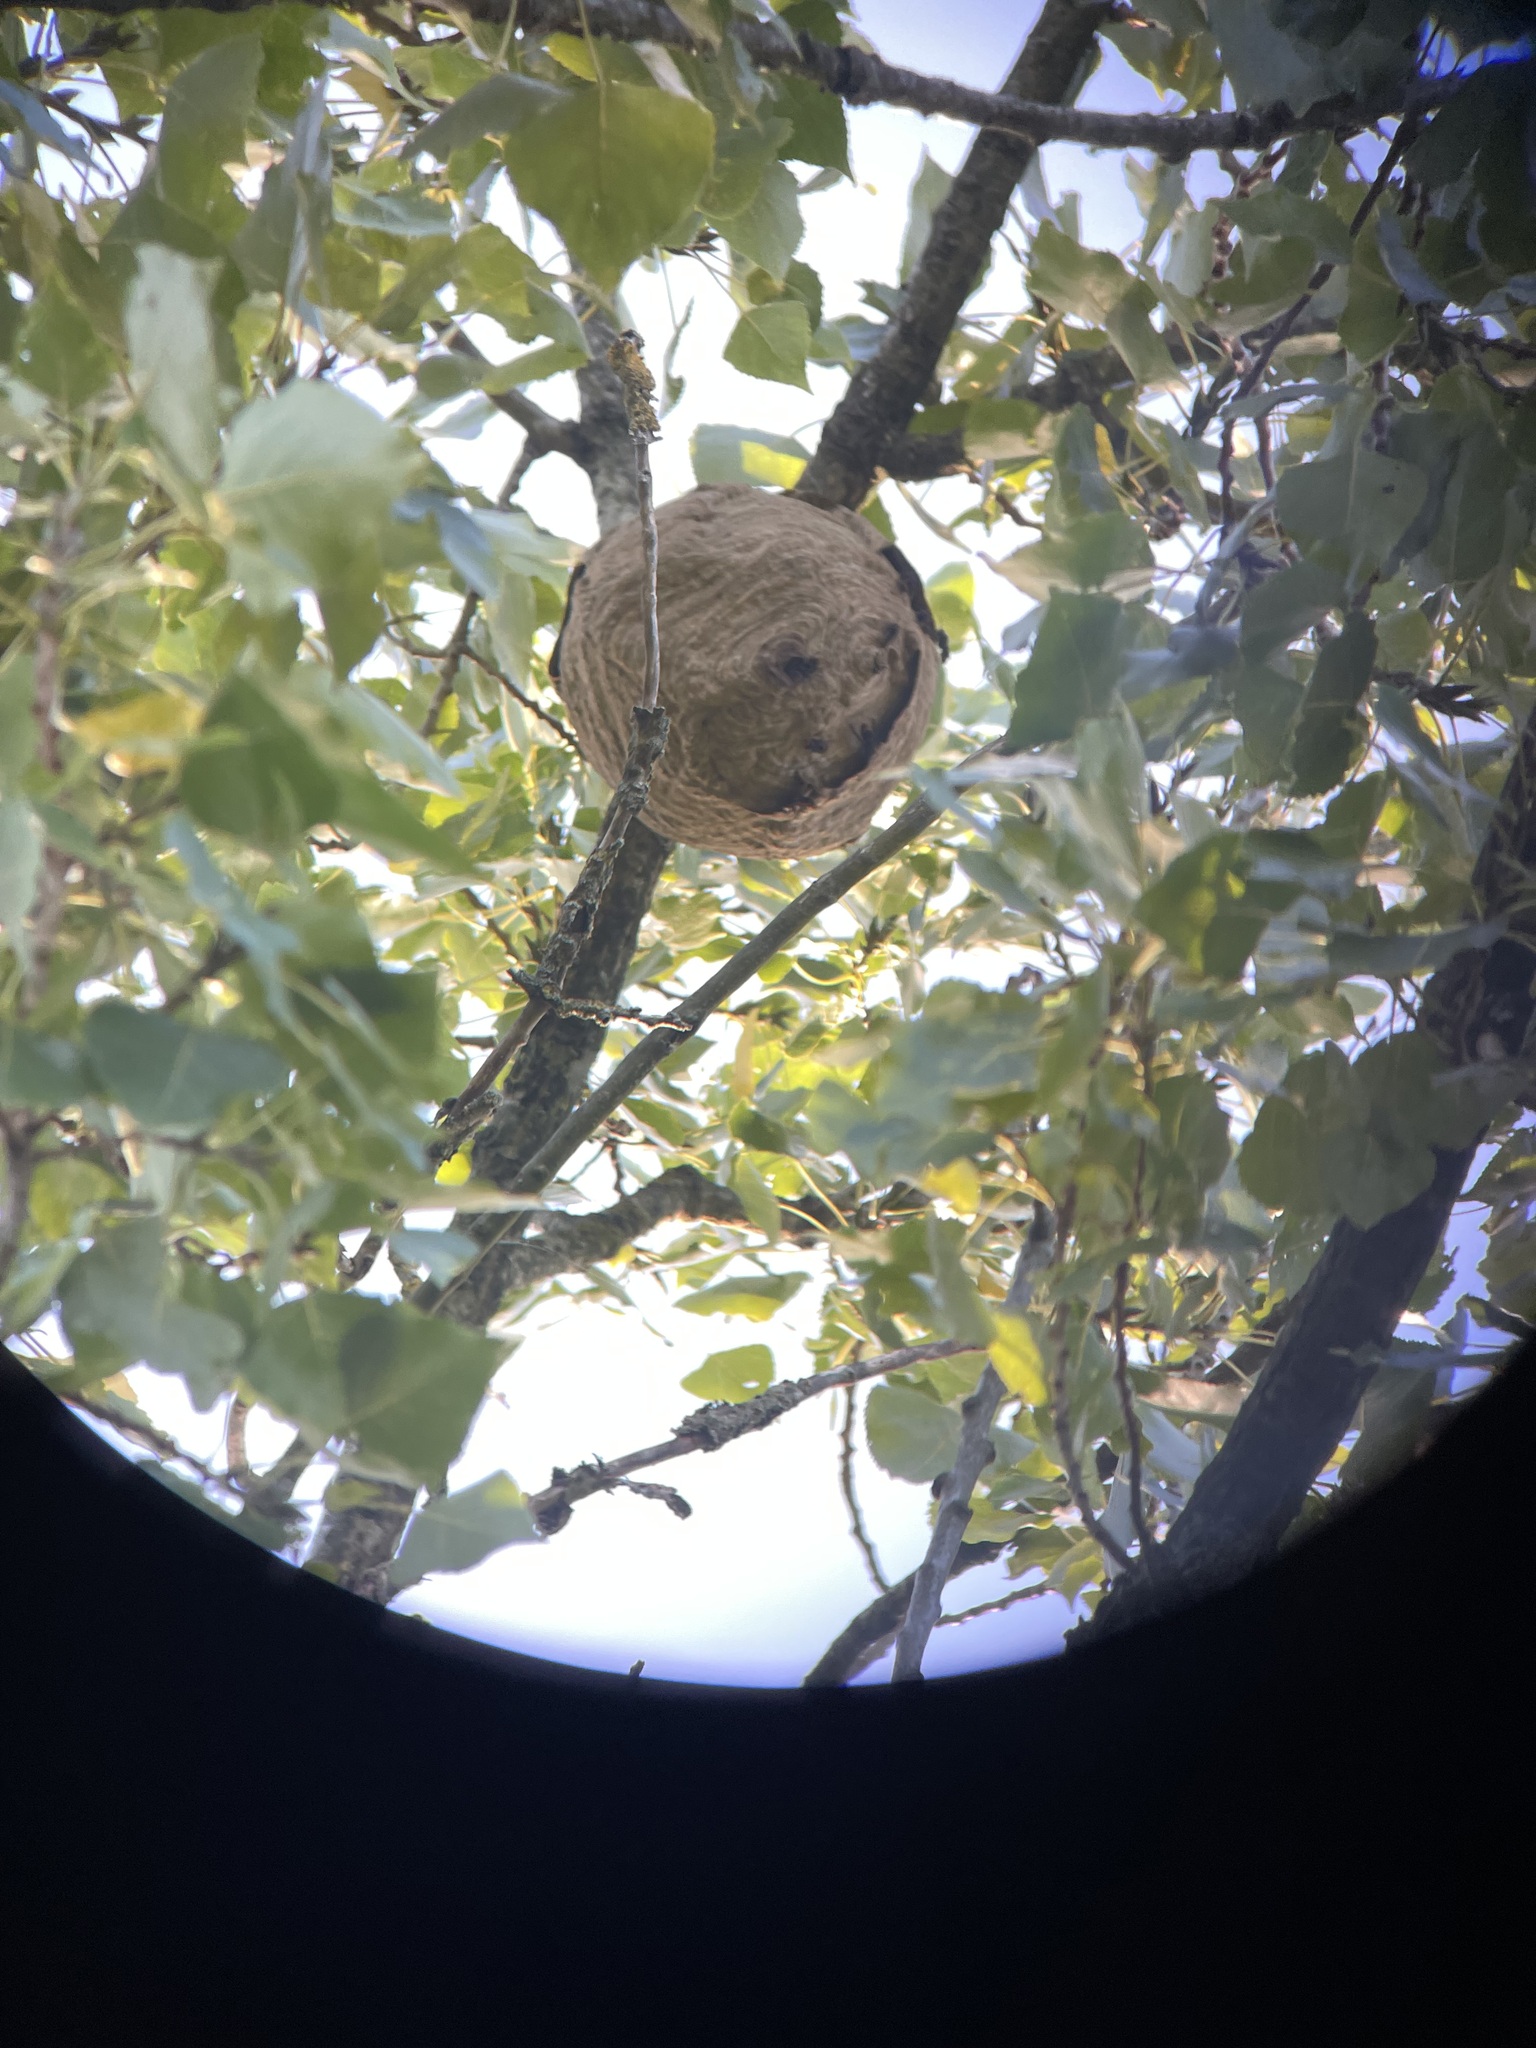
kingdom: Animalia
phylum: Arthropoda
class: Insecta
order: Hymenoptera
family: Vespidae
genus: Vespa
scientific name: Vespa velutina
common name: Asian hornet
